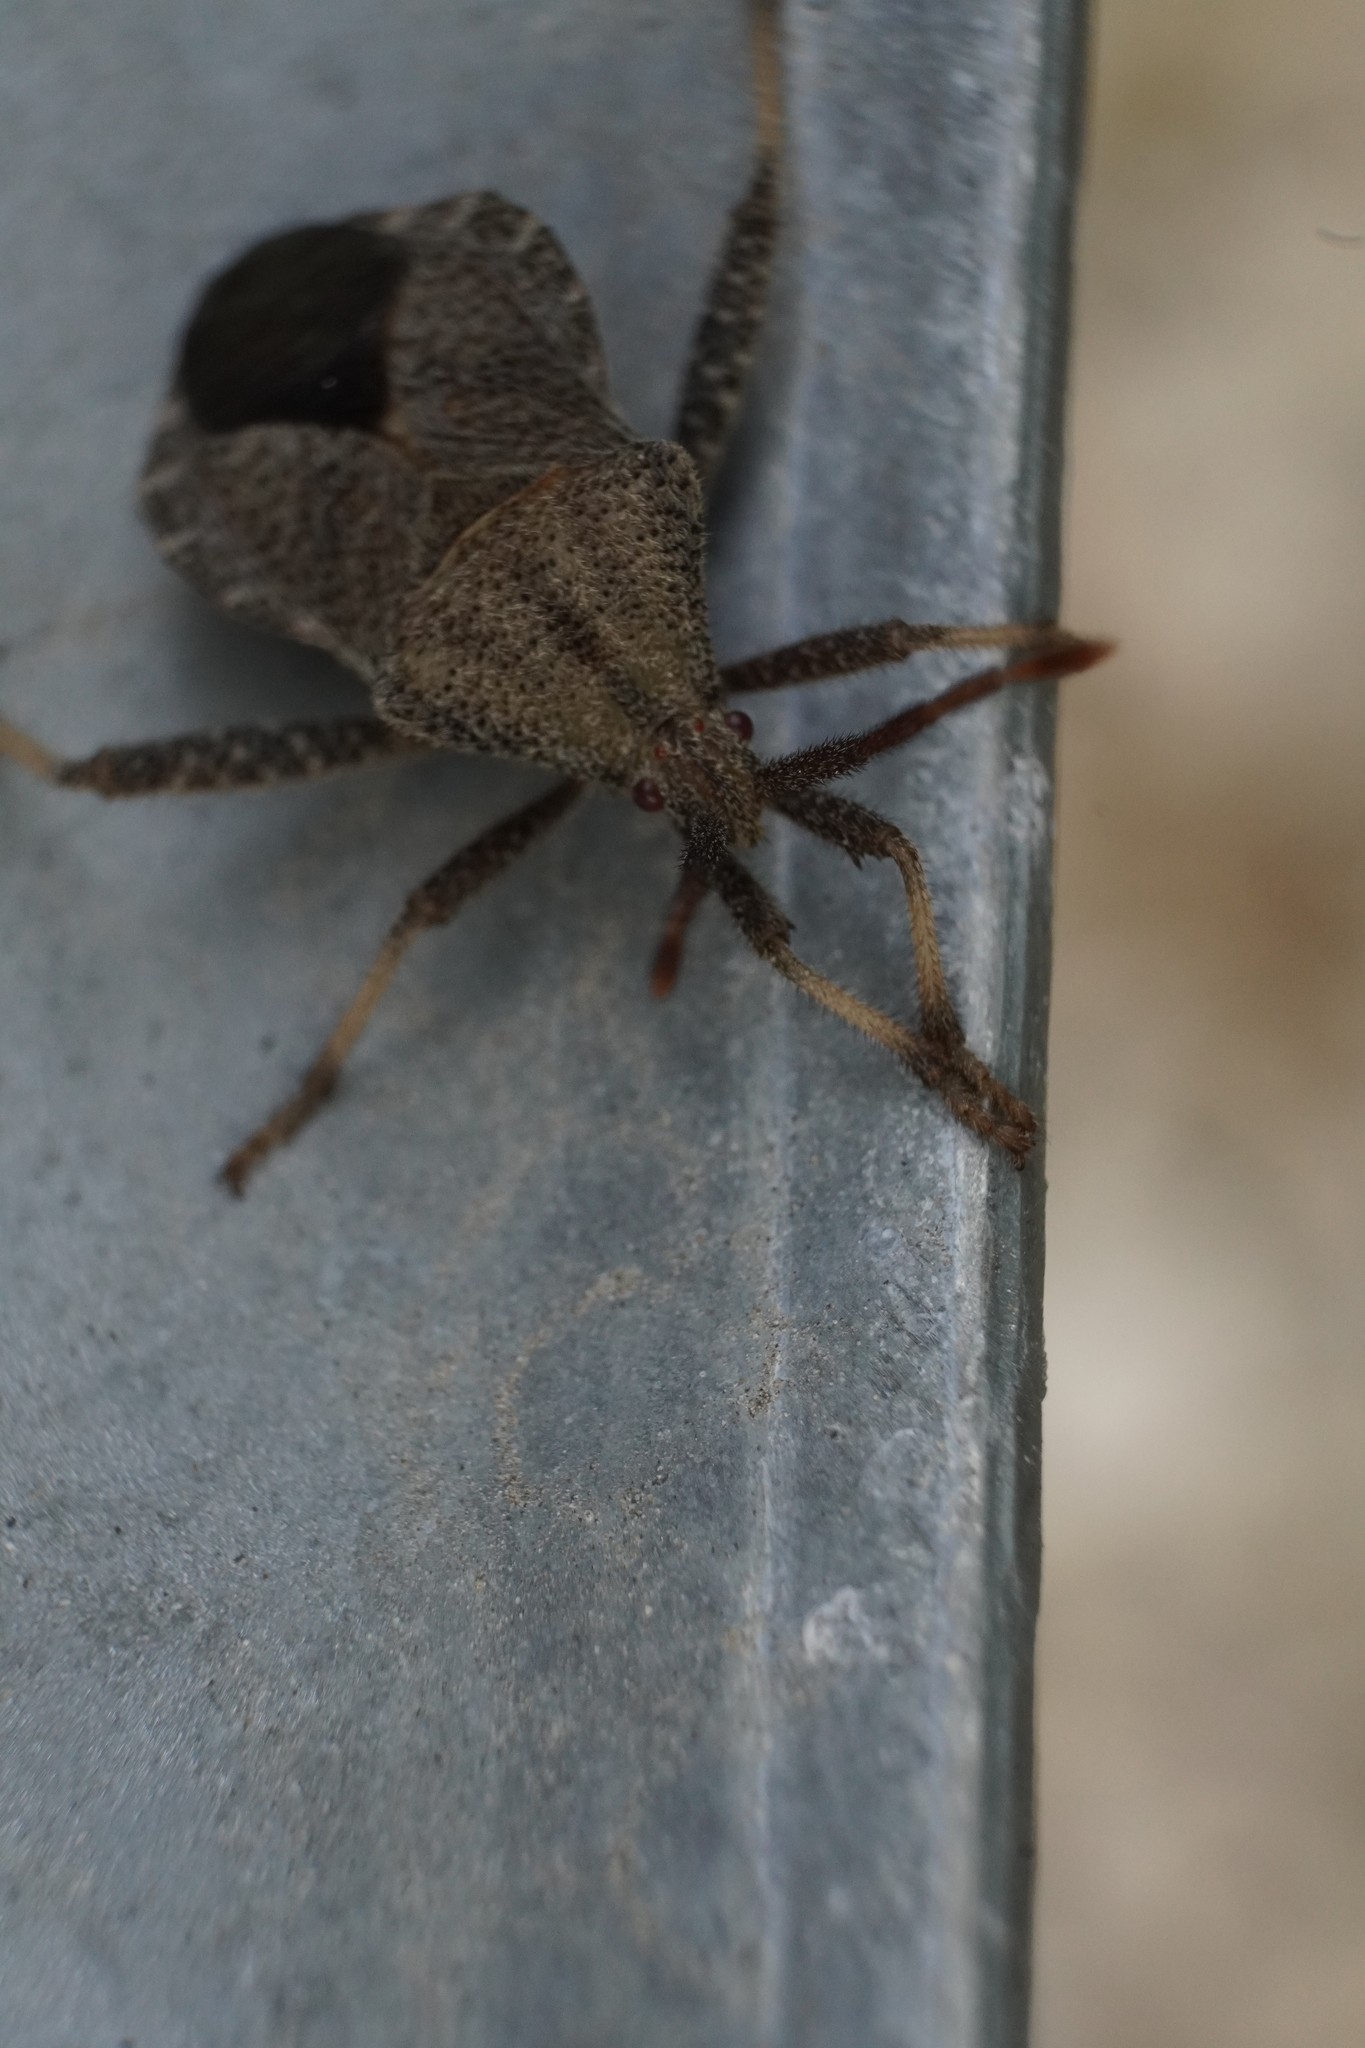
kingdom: Animalia
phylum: Arthropoda
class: Insecta
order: Hemiptera
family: Coreidae
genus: Piezogaster
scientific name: Piezogaster calcarator
